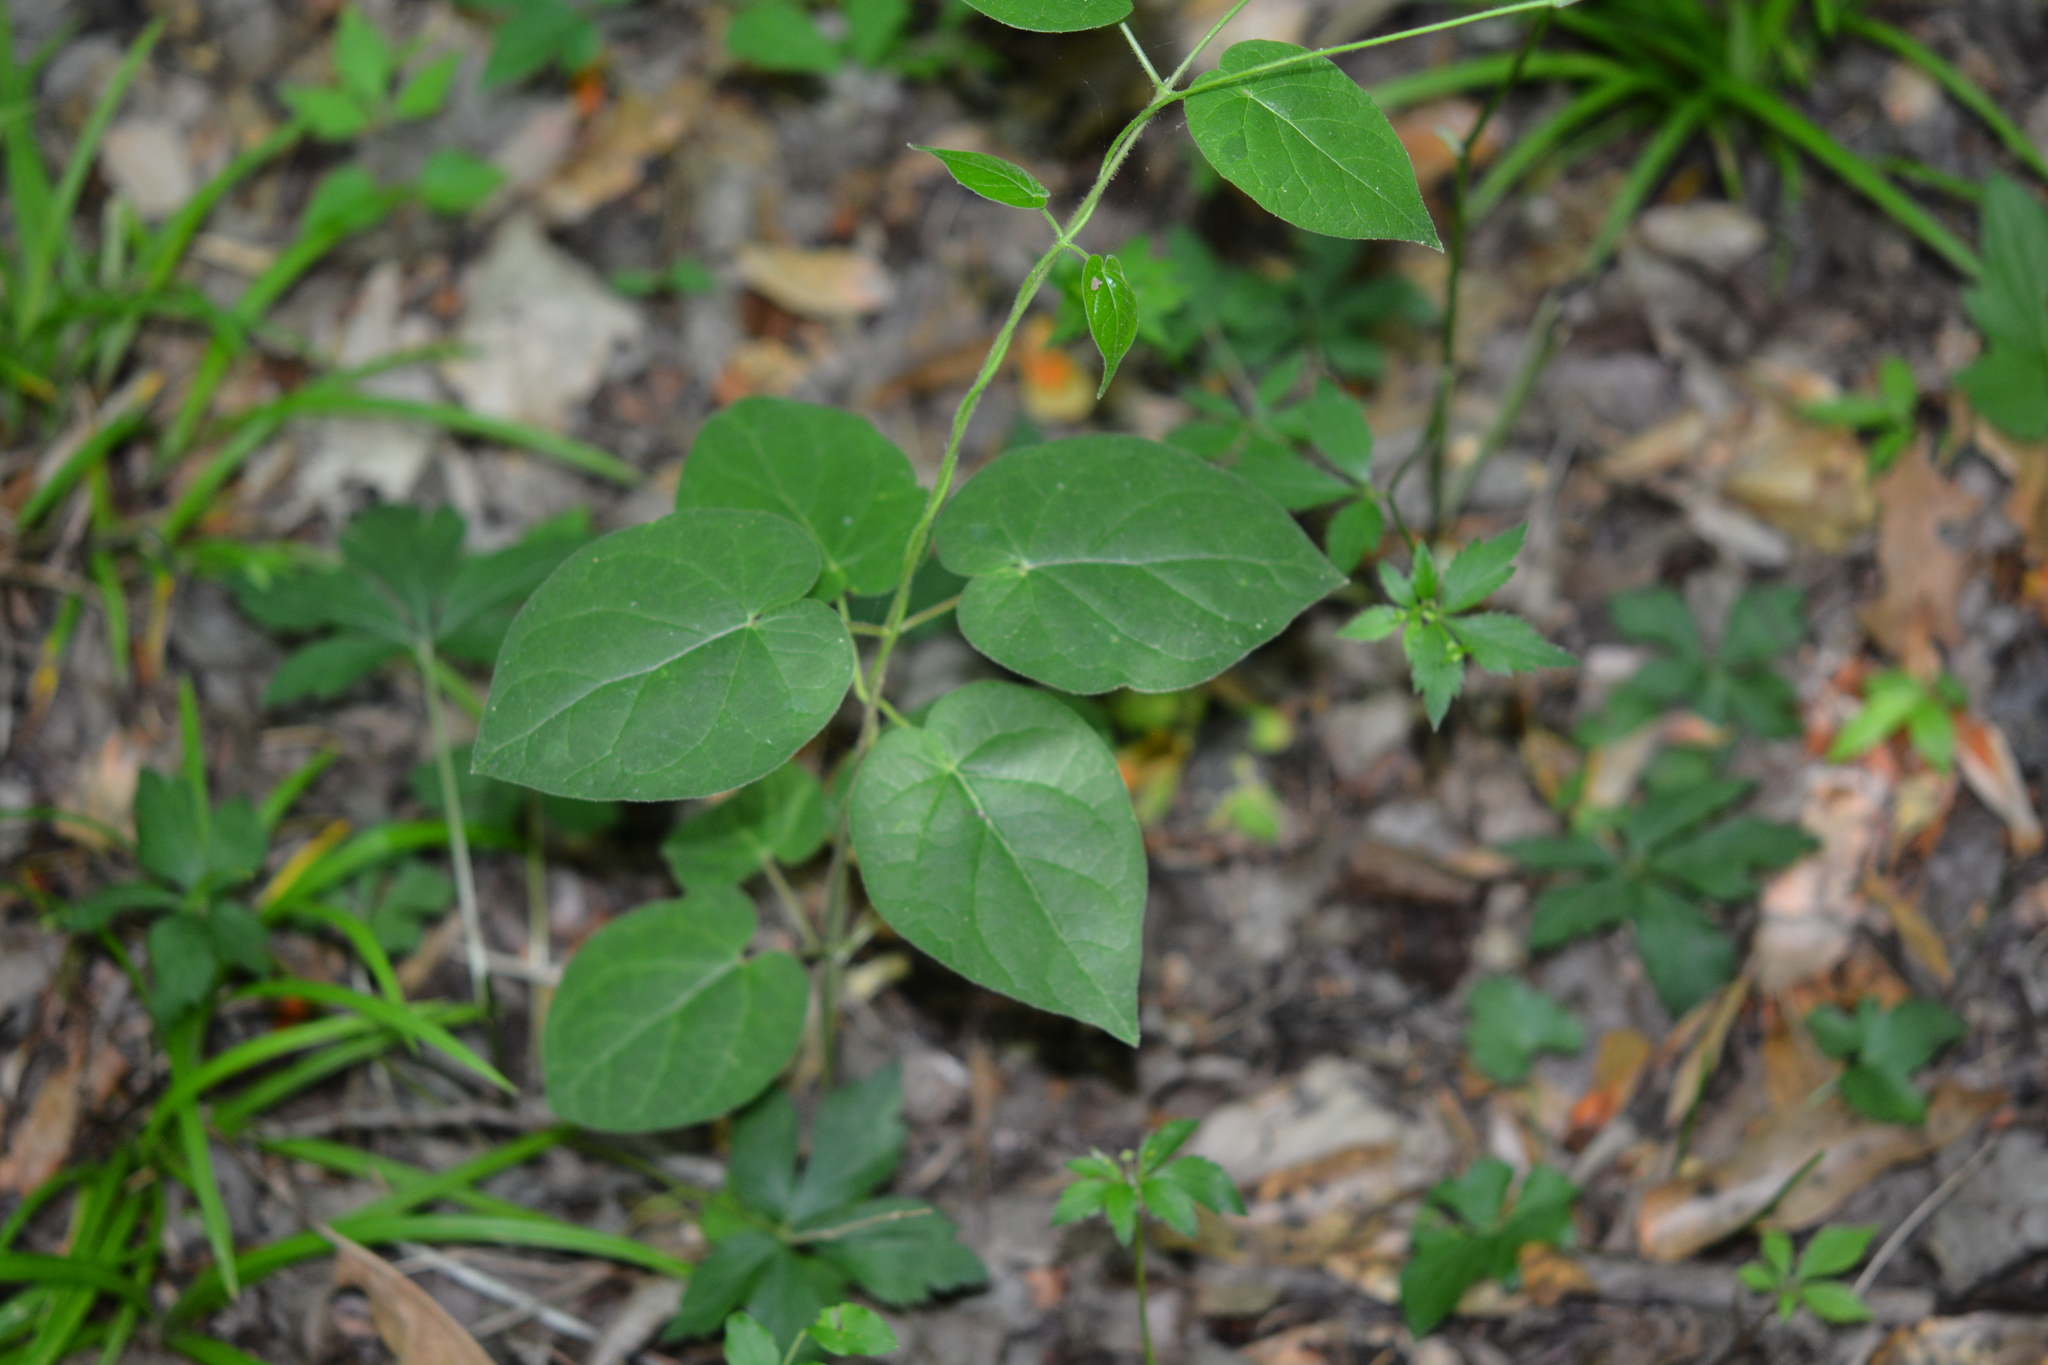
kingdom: Plantae
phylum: Tracheophyta
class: Magnoliopsida
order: Gentianales
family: Apocynaceae
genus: Gonolobus
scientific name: Gonolobus suberosus
